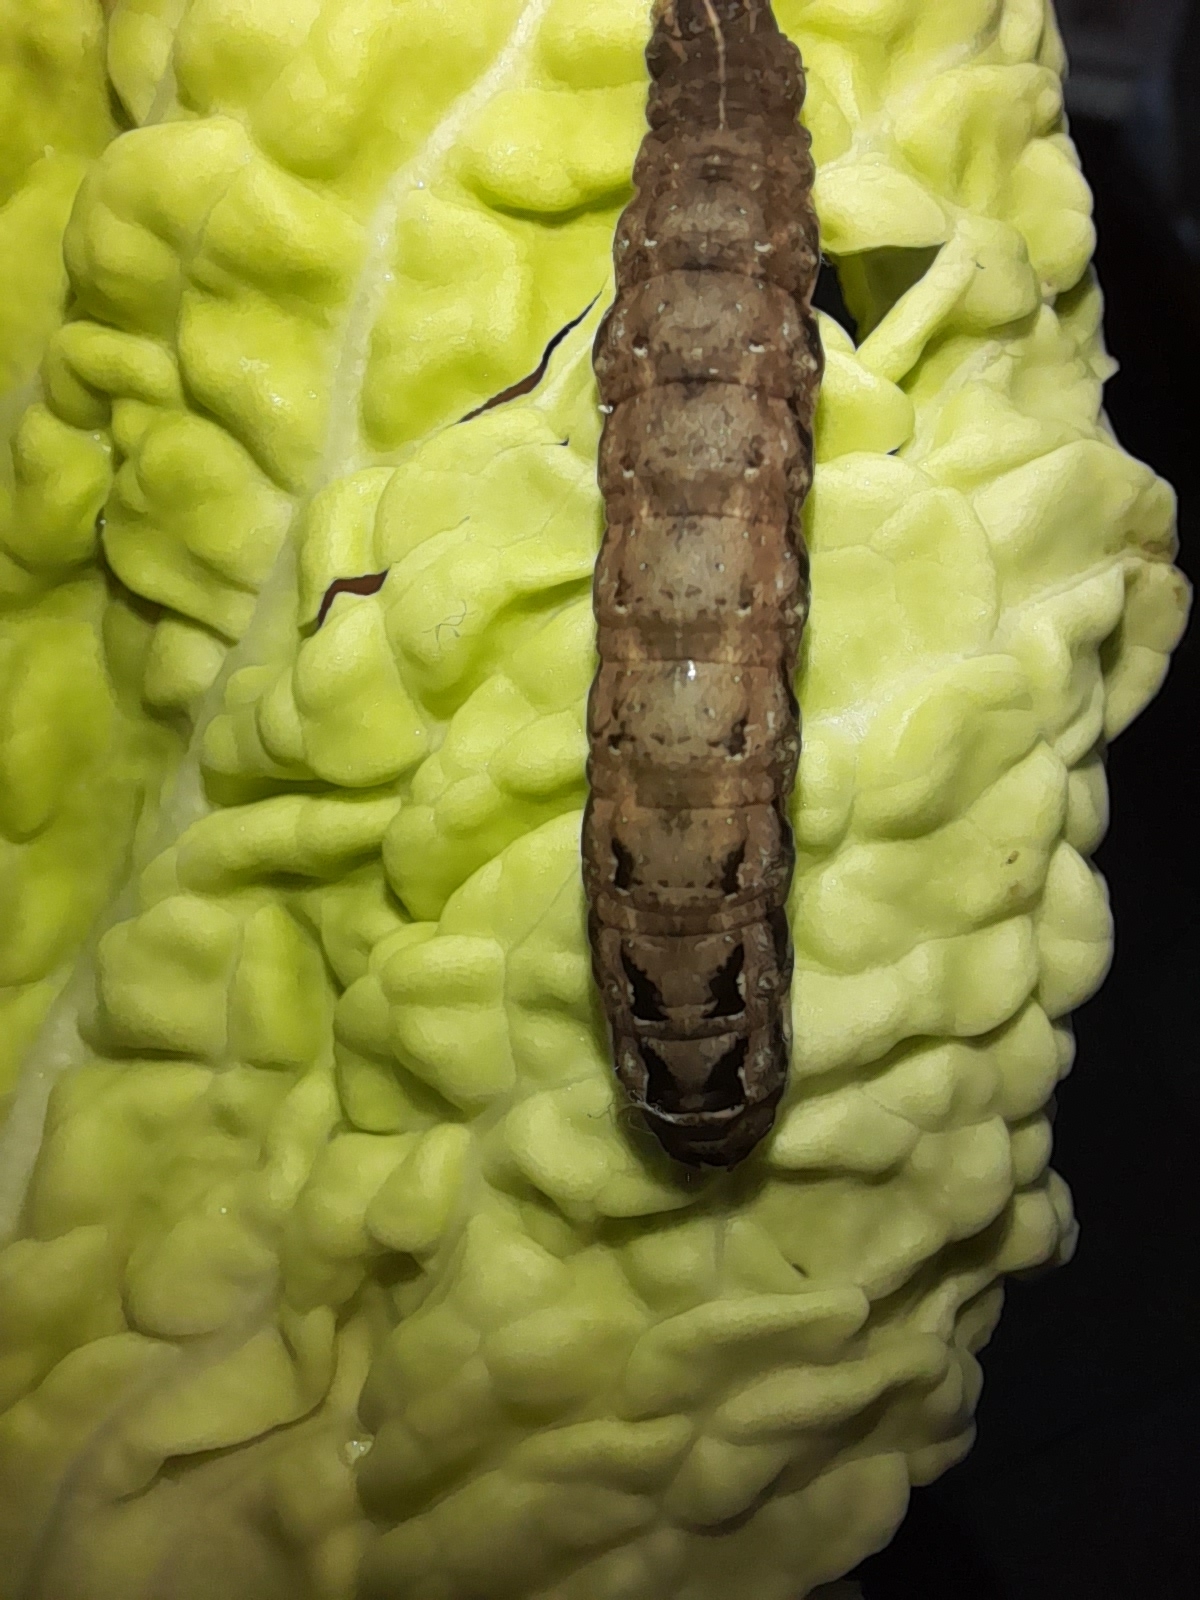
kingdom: Animalia
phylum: Arthropoda
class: Insecta
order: Lepidoptera
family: Noctuidae
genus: Noctua
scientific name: Noctua comes
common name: Lesser yellow underwing
